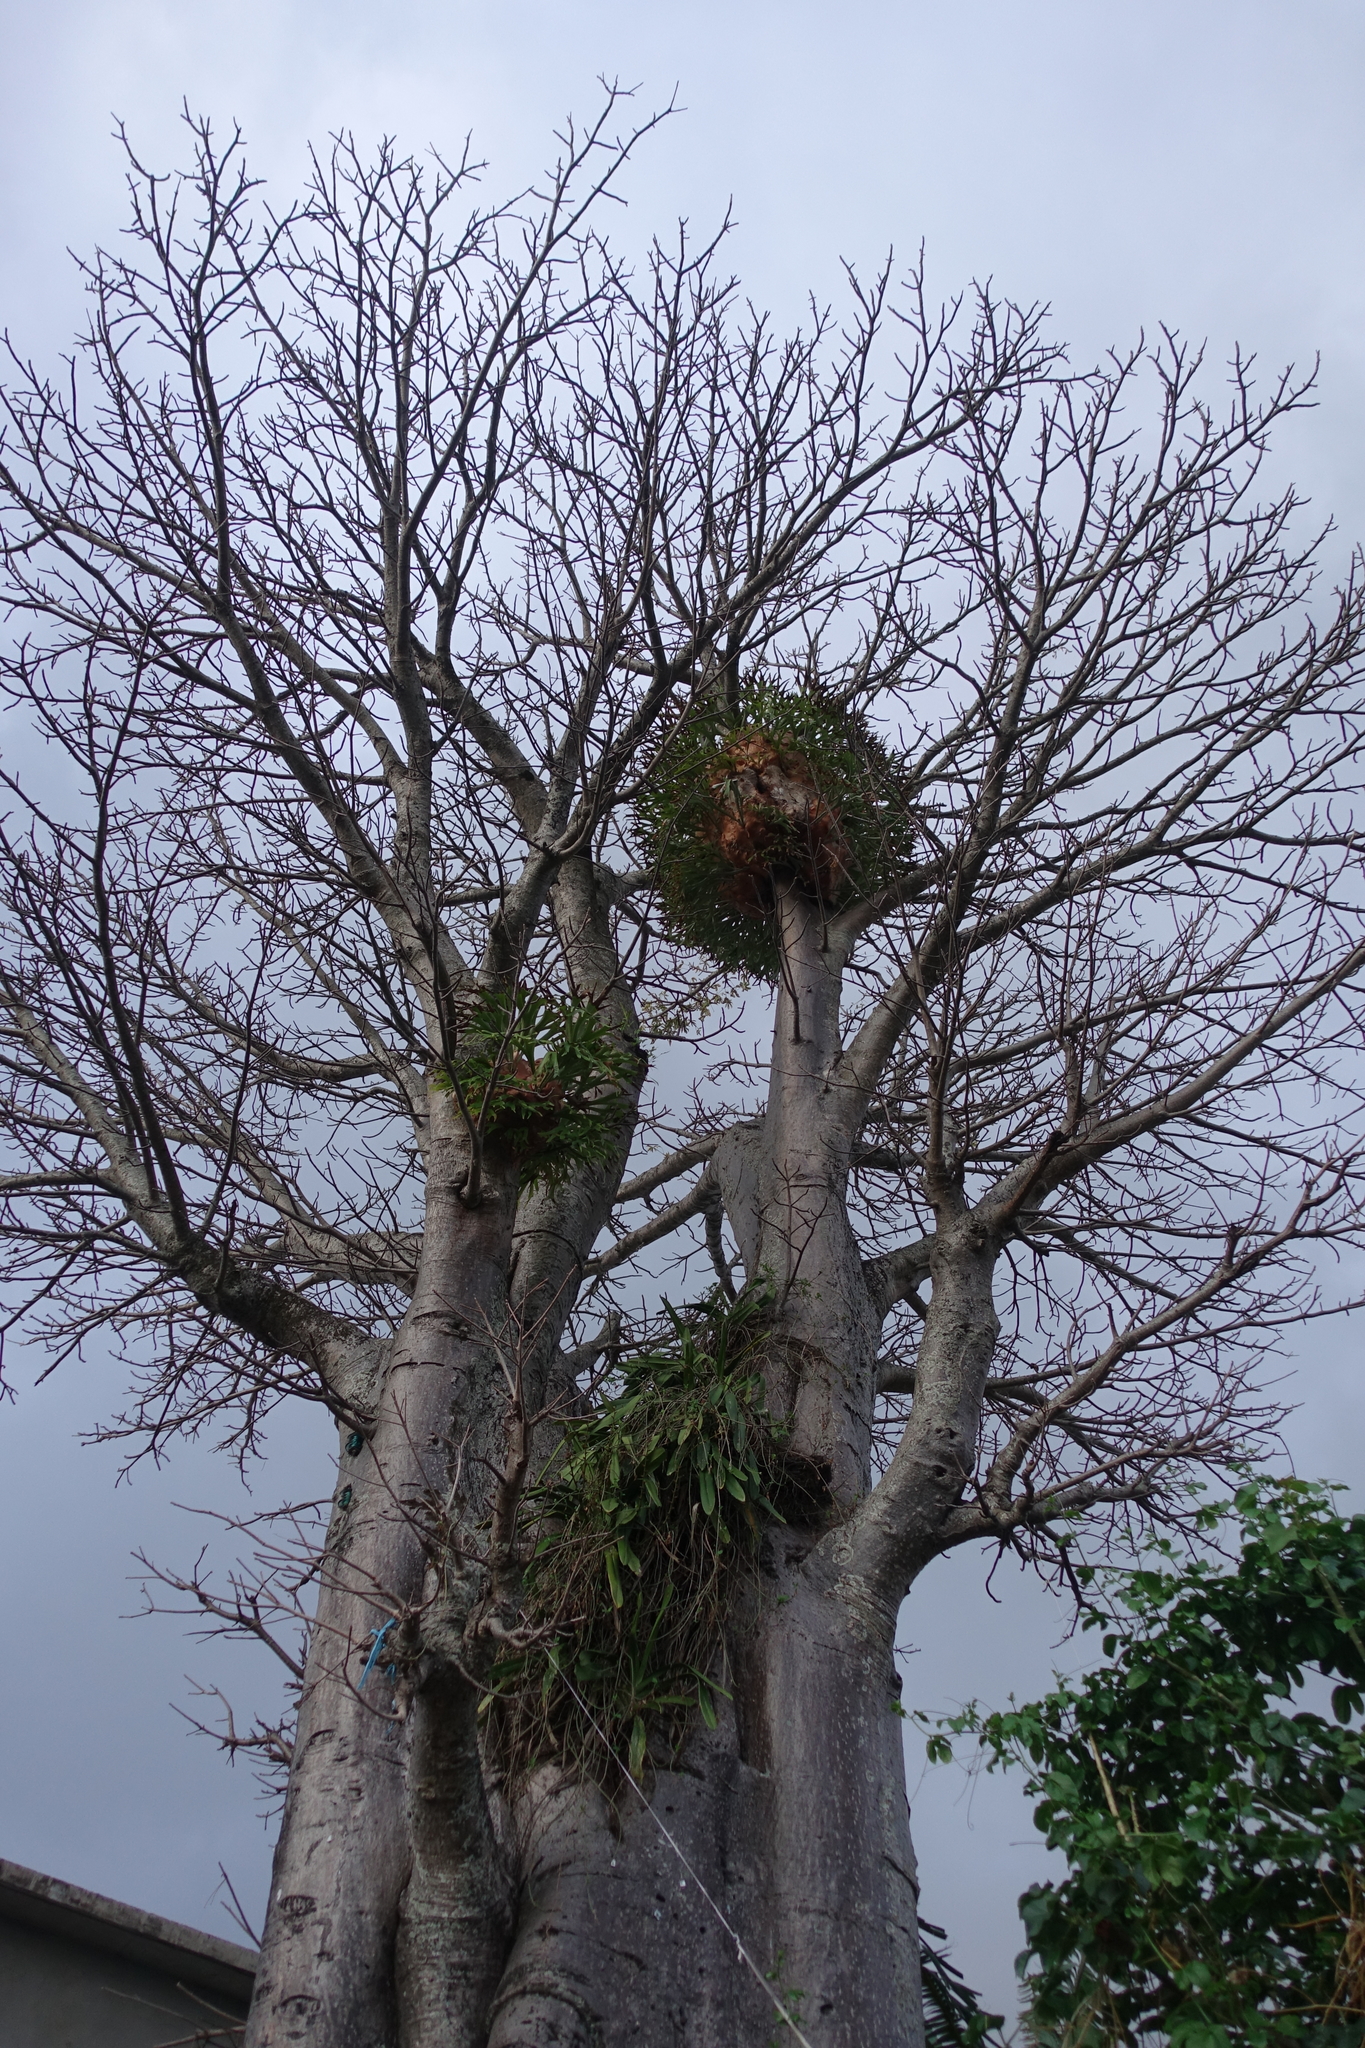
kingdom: Plantae
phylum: Tracheophyta
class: Magnoliopsida
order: Malvales
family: Malvaceae
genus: Adansonia
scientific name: Adansonia digitata
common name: Dead-rat-tree
